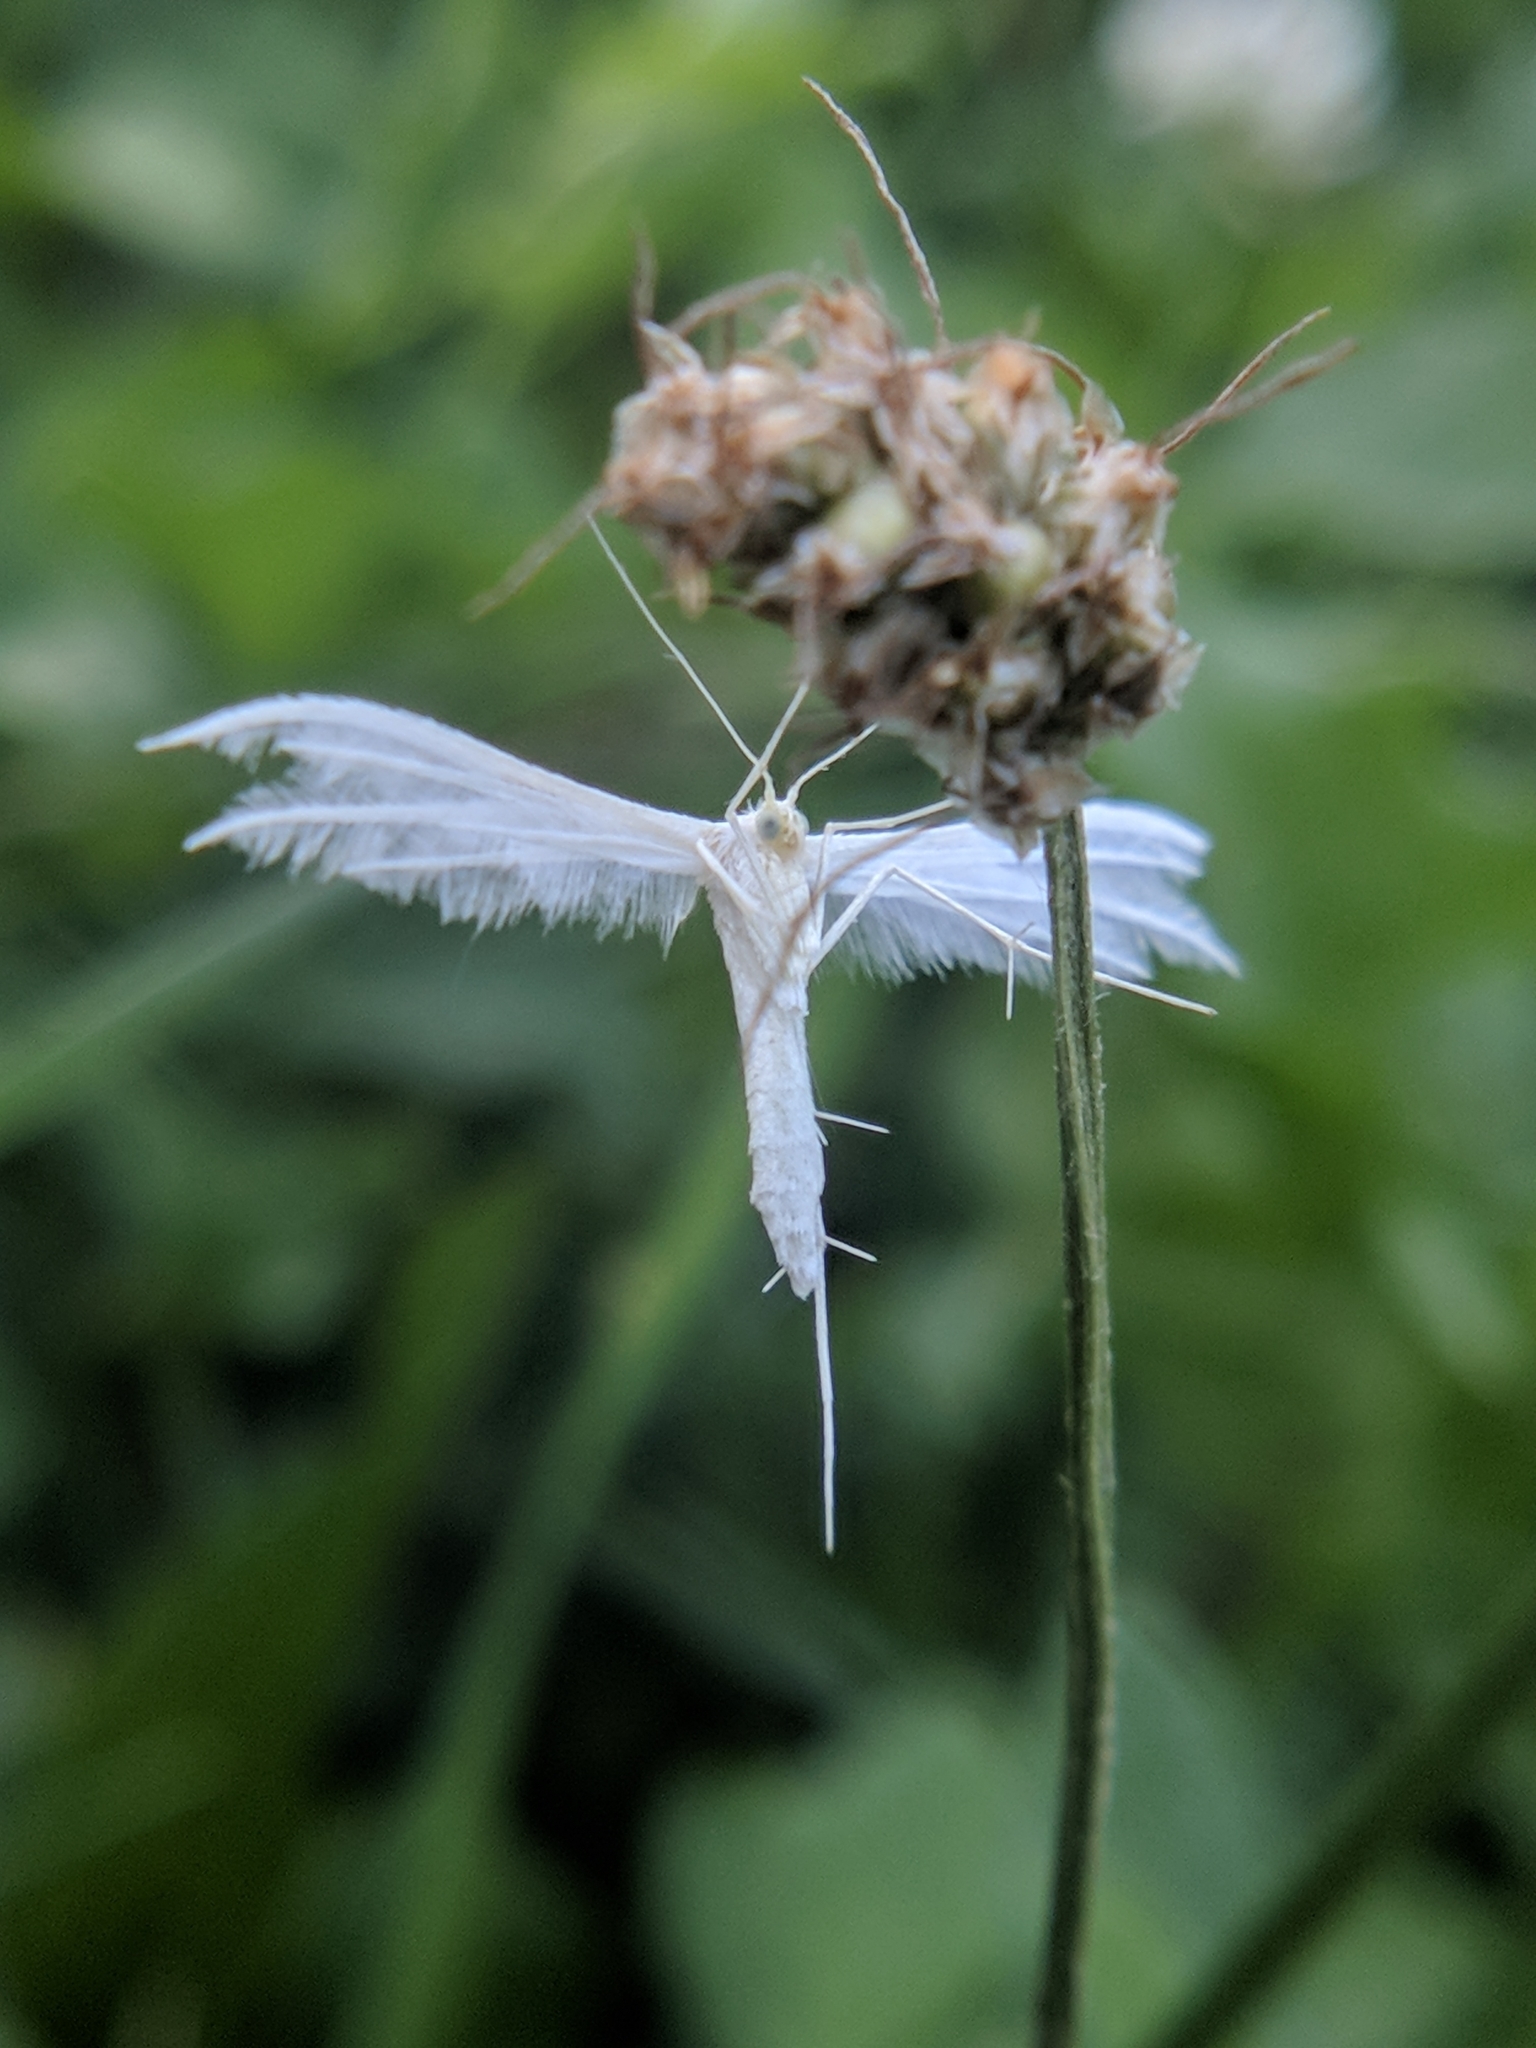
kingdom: Animalia
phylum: Arthropoda
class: Insecta
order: Lepidoptera
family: Pterophoridae
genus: Pterophorus
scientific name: Pterophorus pentadactyla
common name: White plume moth
